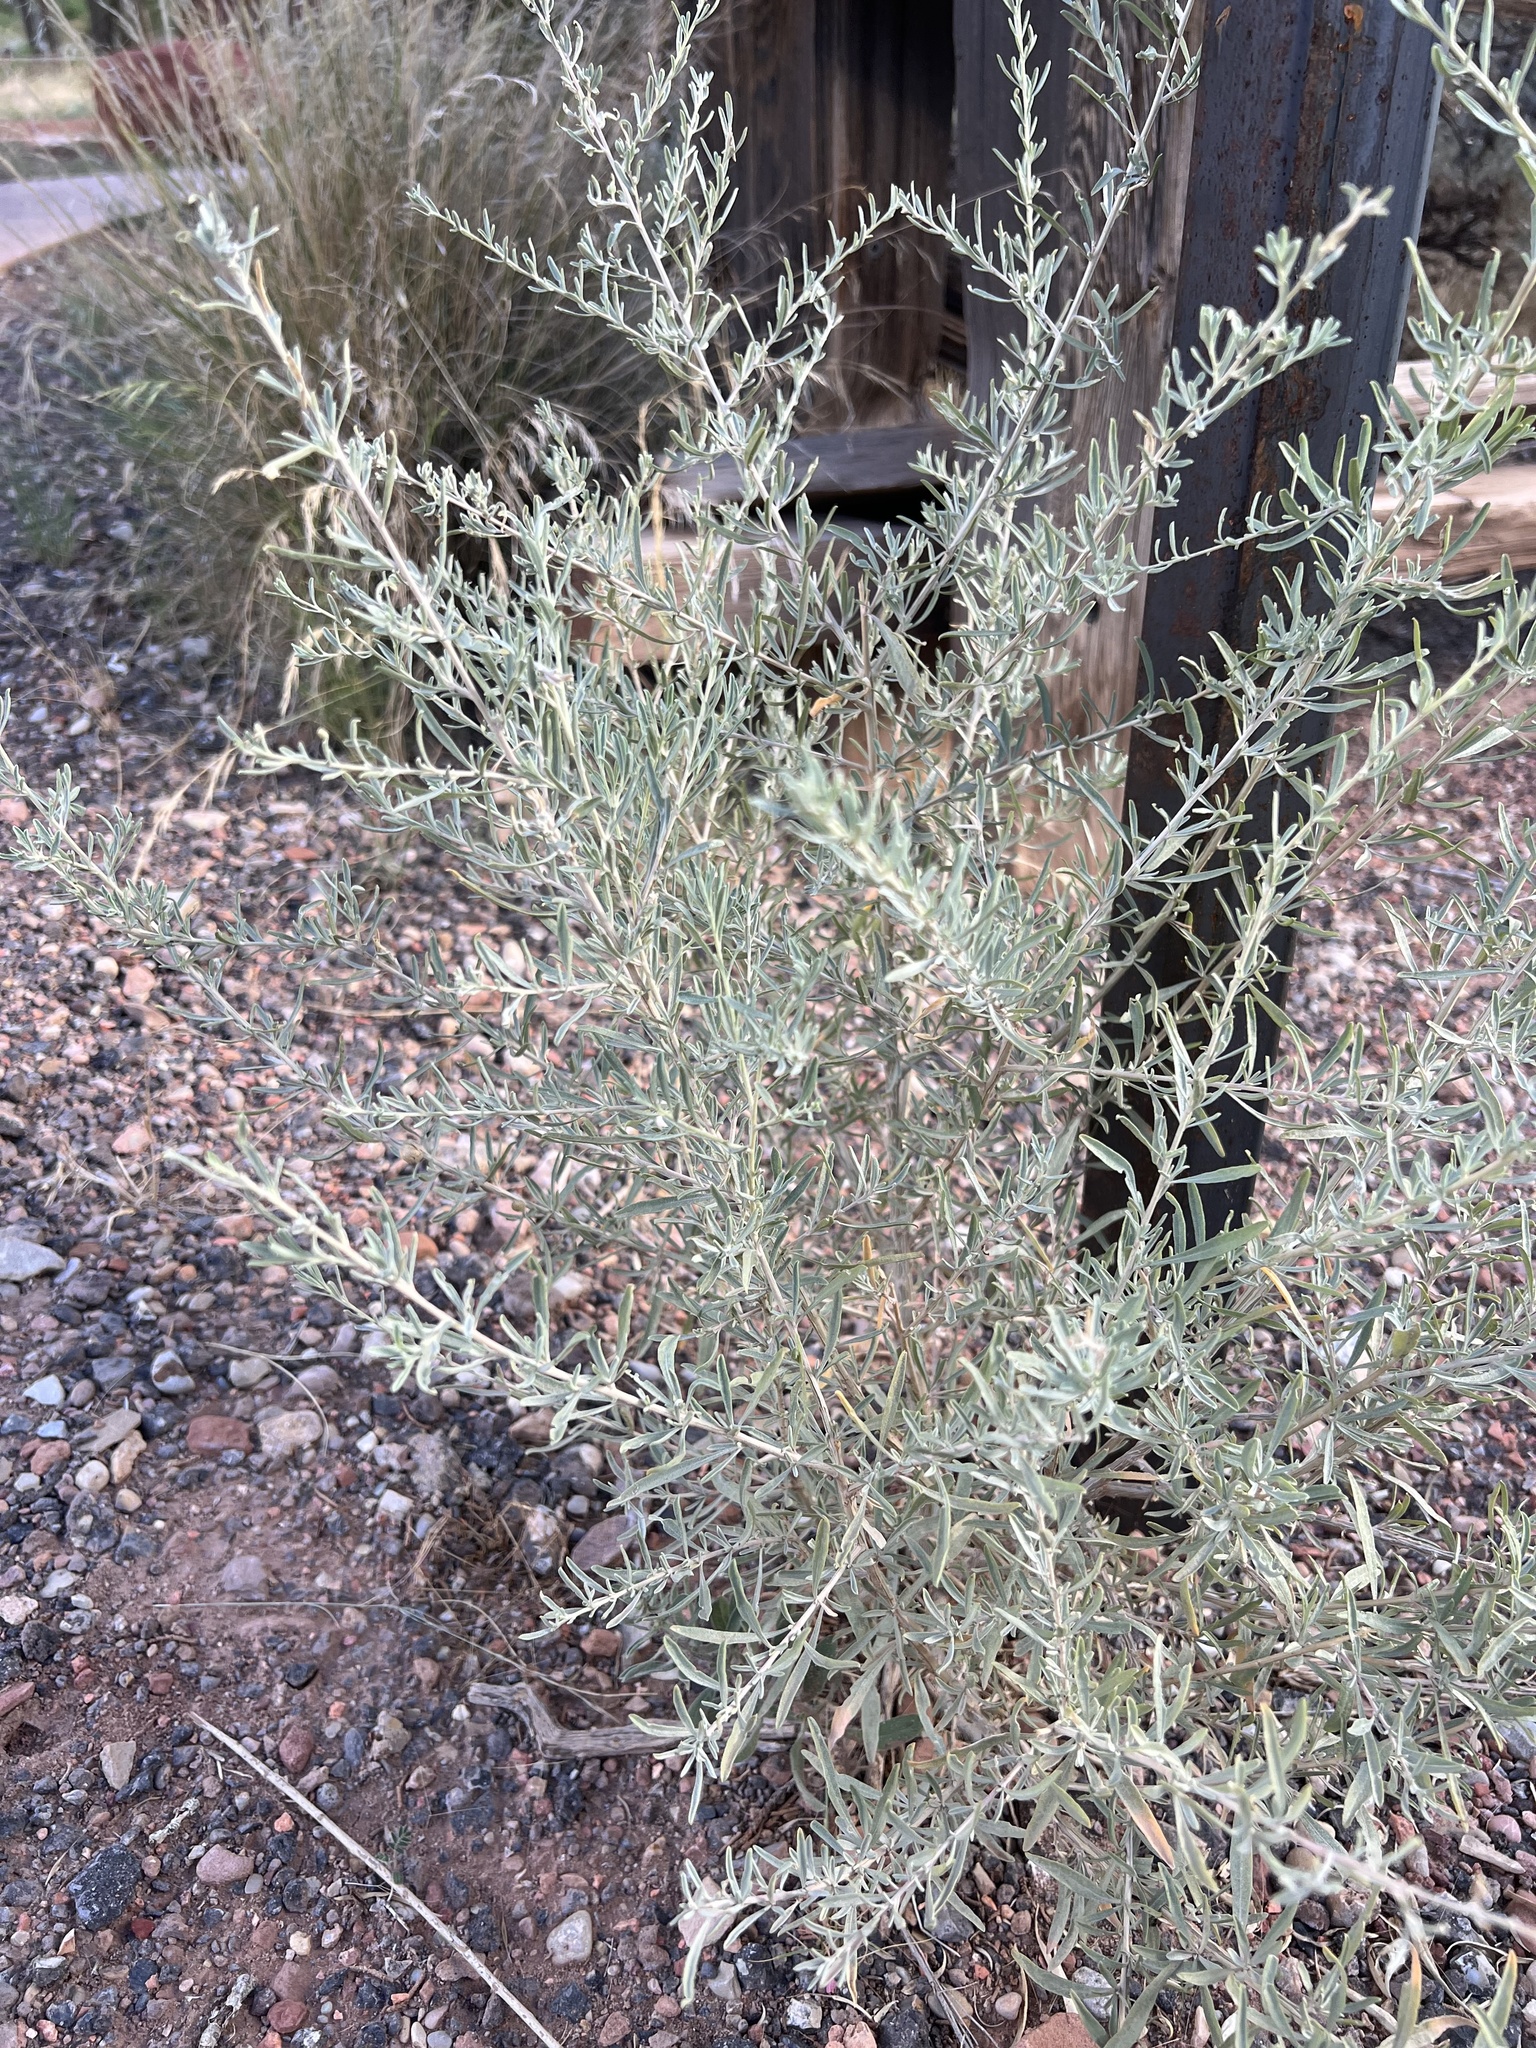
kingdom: Plantae
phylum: Tracheophyta
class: Magnoliopsida
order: Caryophyllales
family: Amaranthaceae
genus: Atriplex
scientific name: Atriplex canescens
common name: Four-wing saltbush
